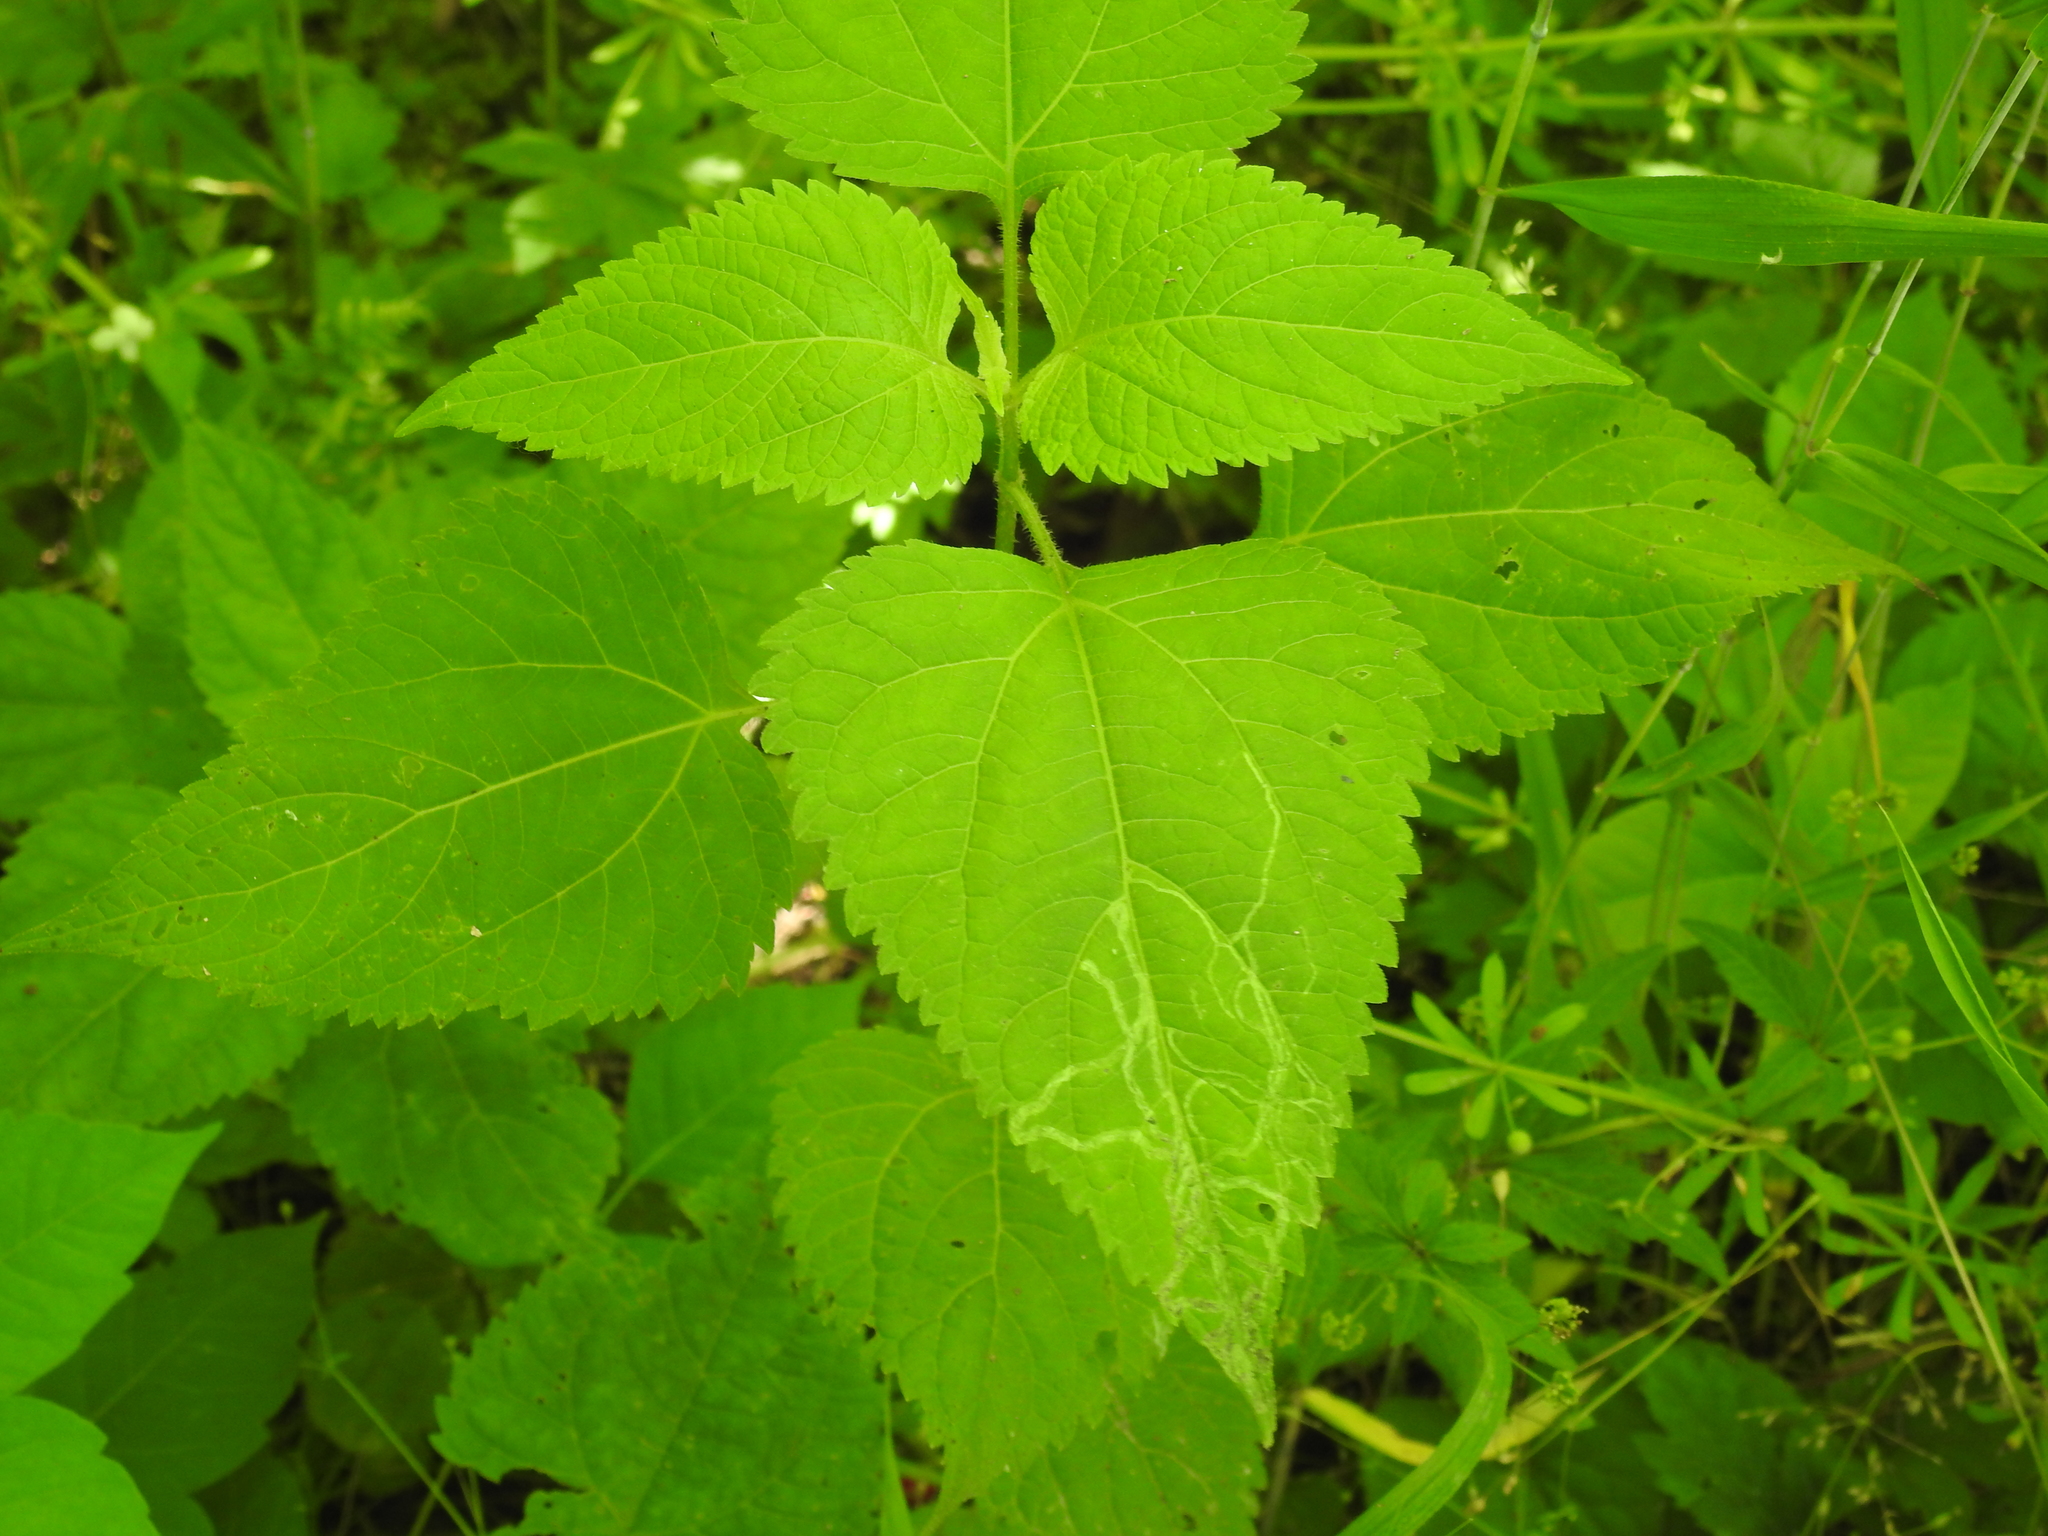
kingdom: Plantae
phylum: Tracheophyta
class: Magnoliopsida
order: Asterales
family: Asteraceae
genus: Ageratina
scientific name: Ageratina altissima
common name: White snakeroot
